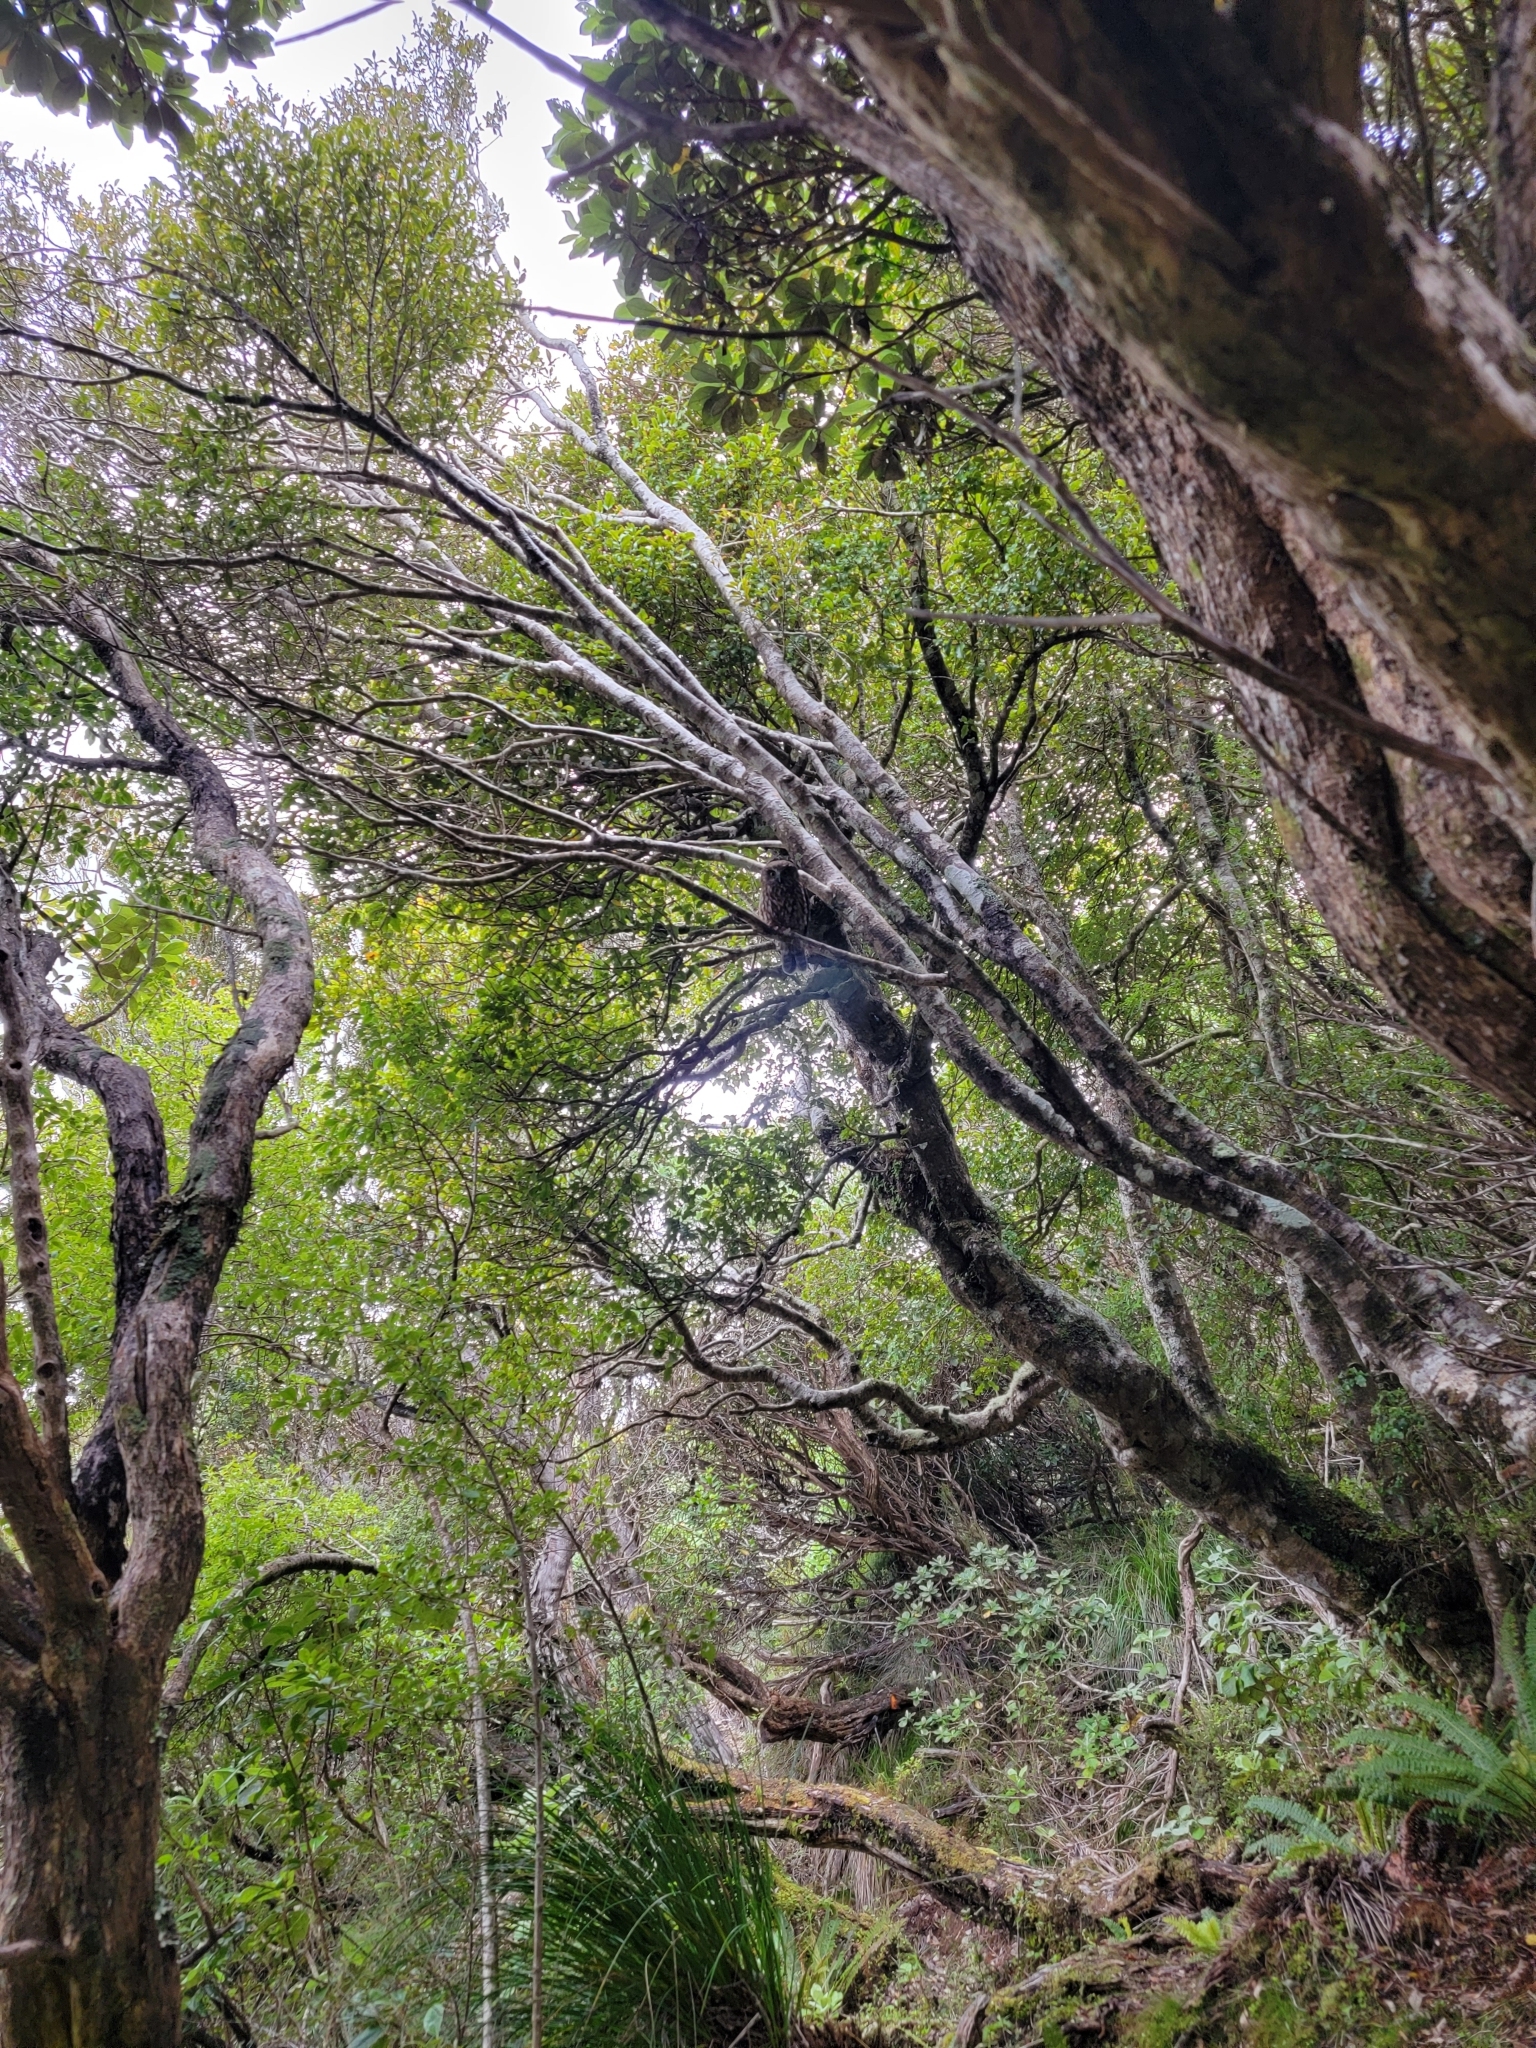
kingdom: Animalia
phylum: Chordata
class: Aves
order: Strigiformes
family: Strigidae
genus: Ninox
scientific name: Ninox novaeseelandiae
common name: Morepork
